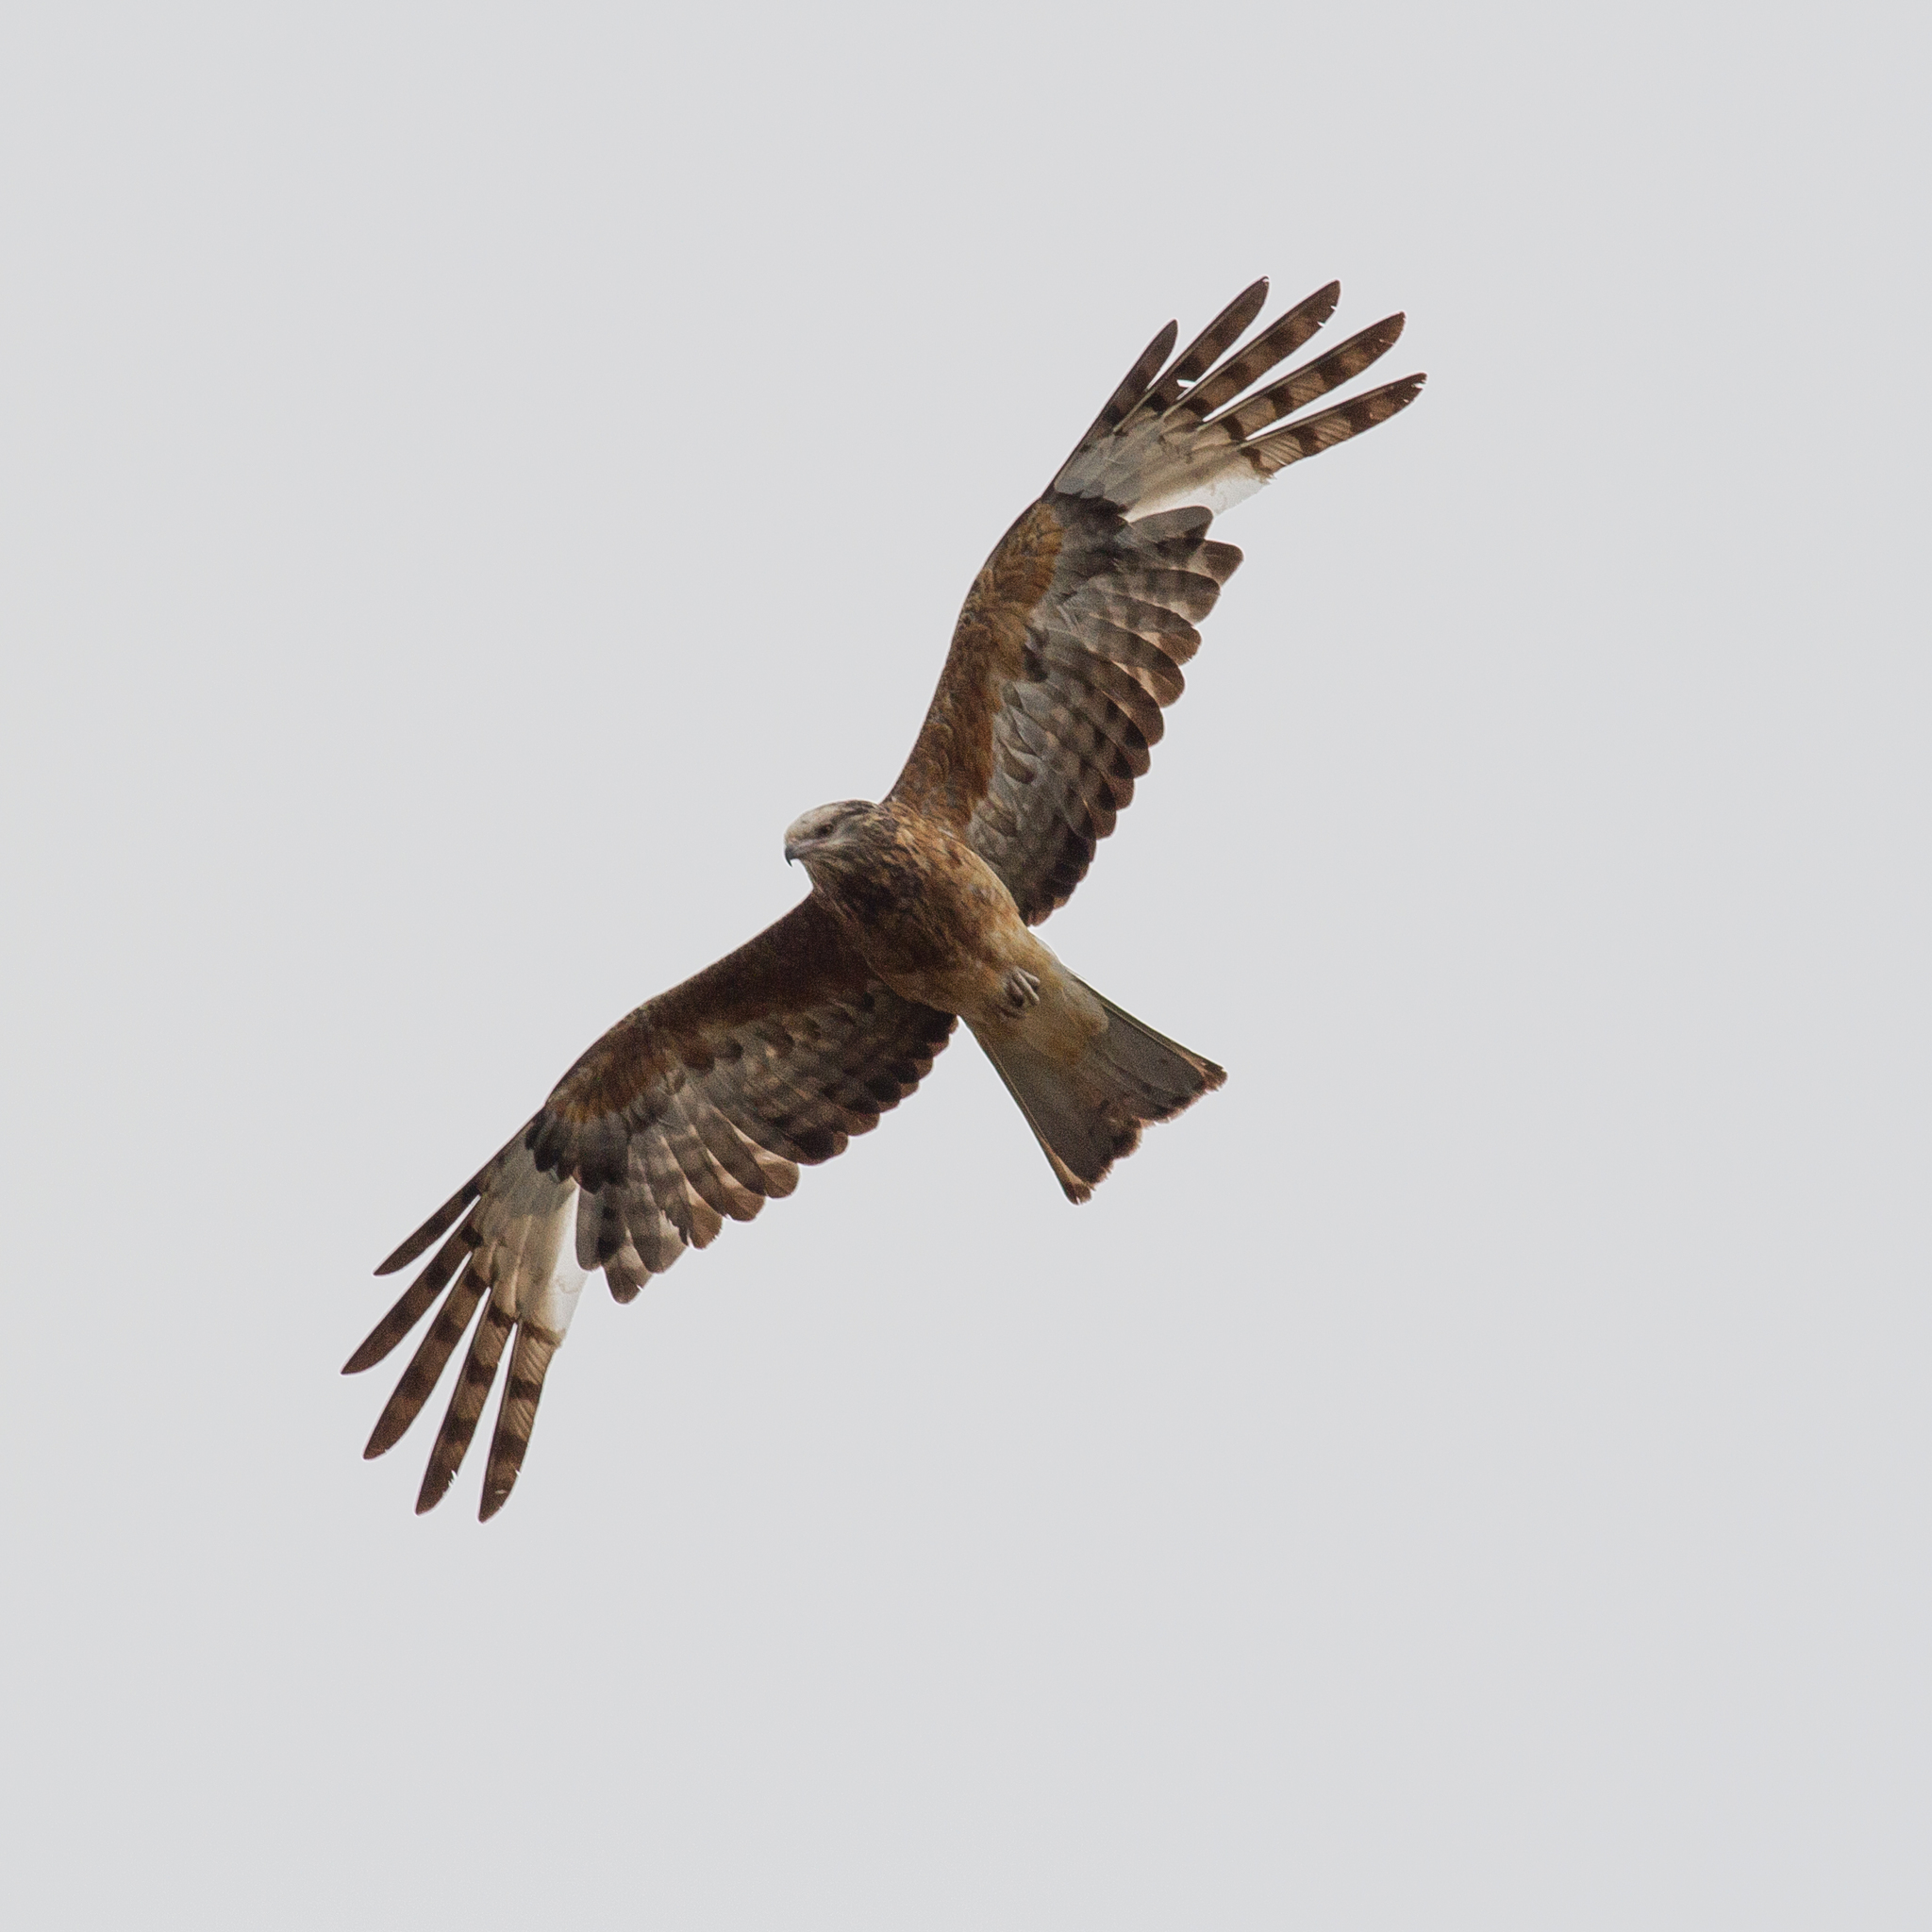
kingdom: Animalia
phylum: Chordata
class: Aves
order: Accipitriformes
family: Accipitridae
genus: Lophoictinia
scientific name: Lophoictinia isura
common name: Square-tailed kite
